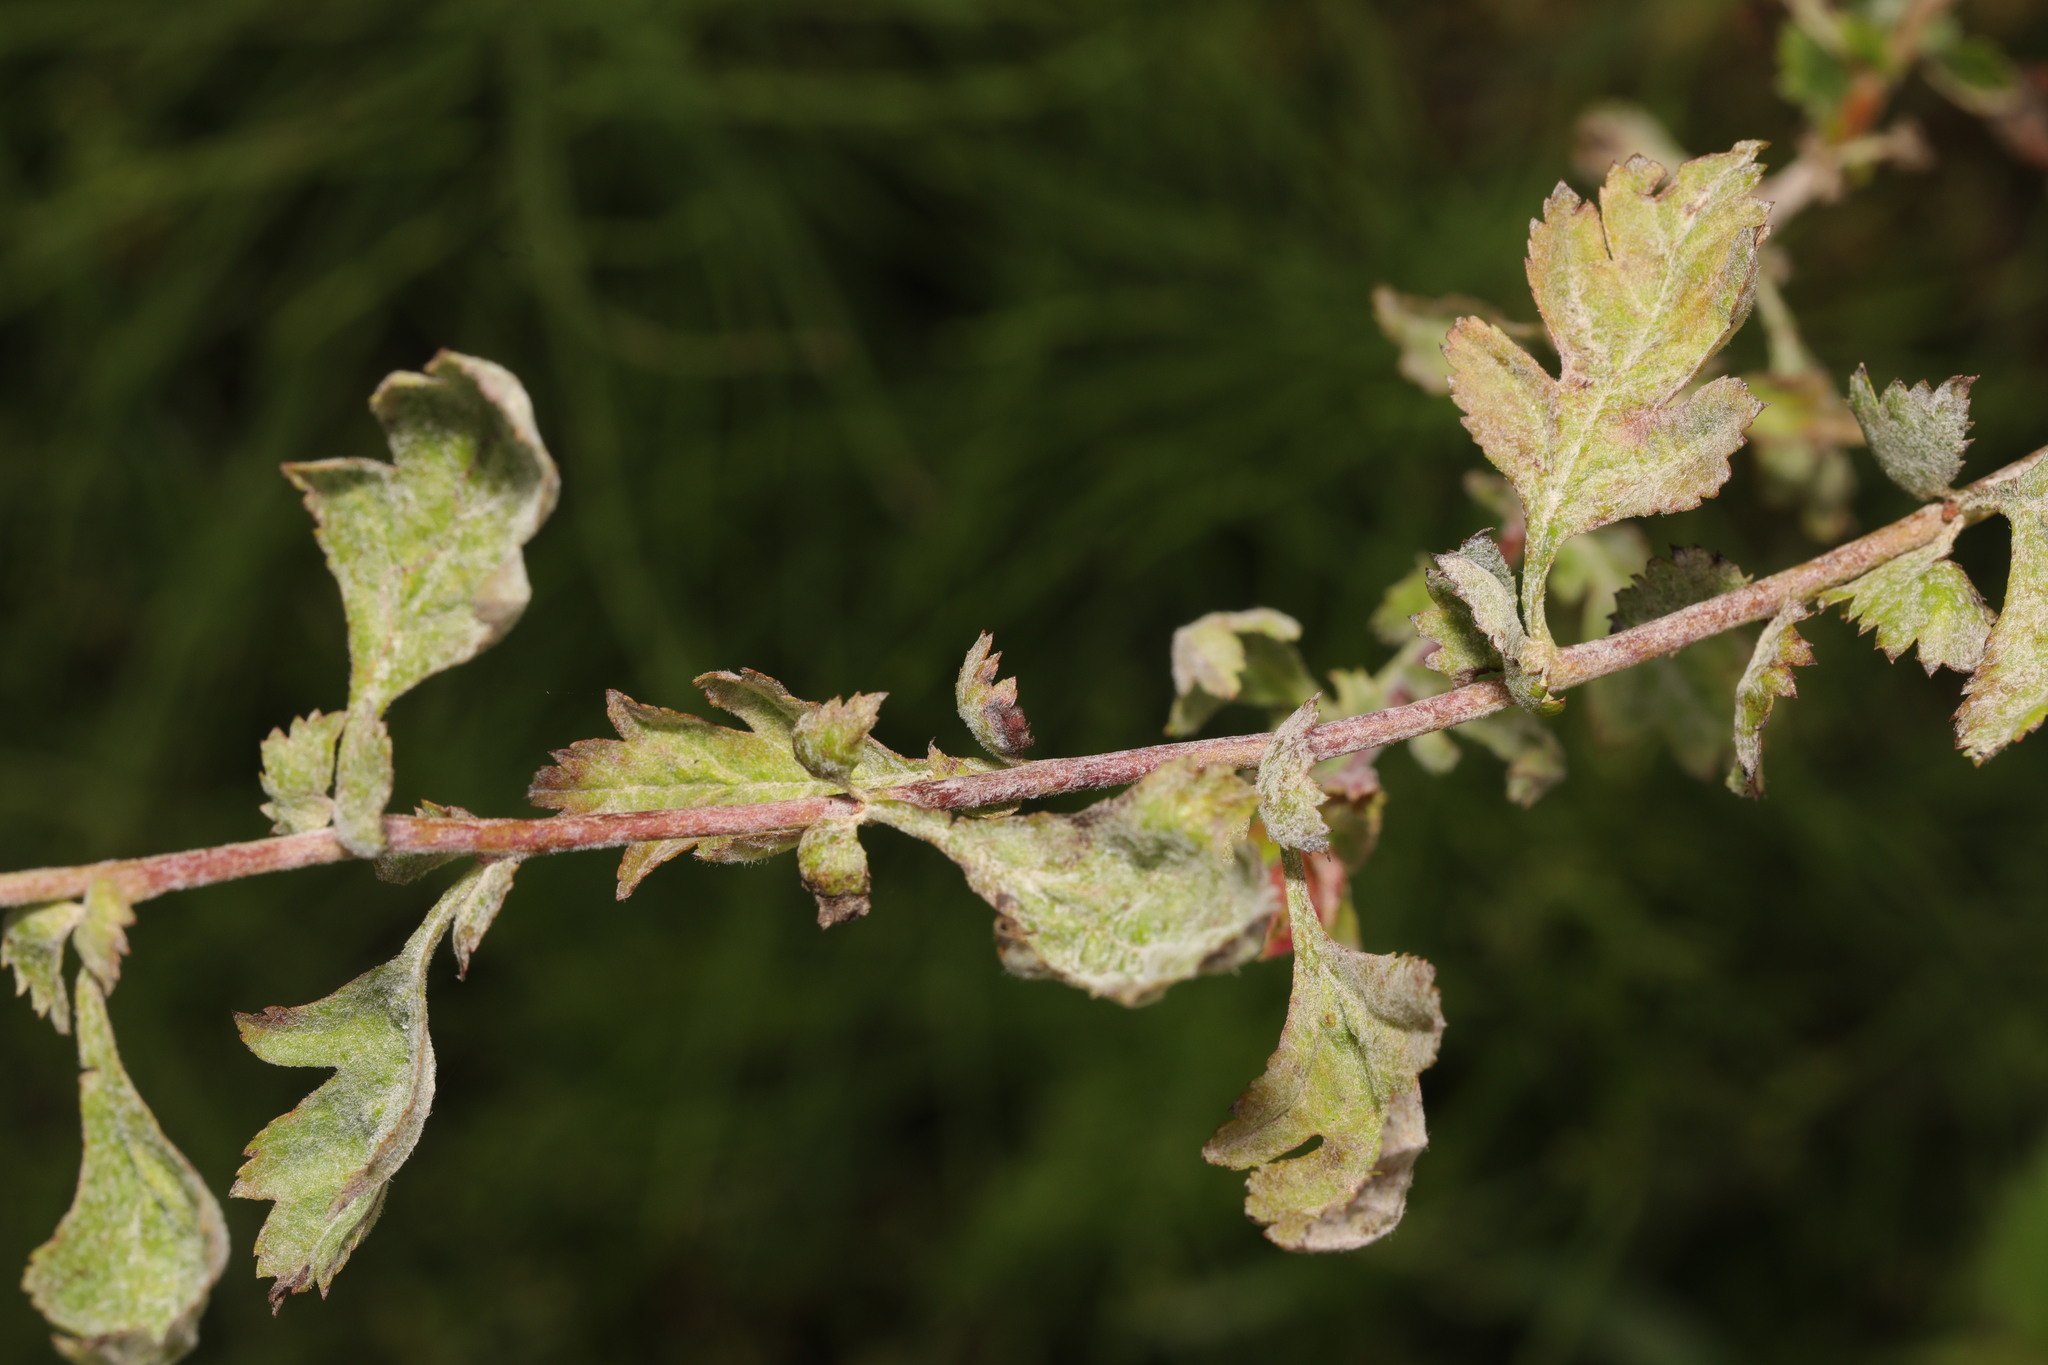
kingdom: Fungi
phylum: Ascomycota
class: Leotiomycetes
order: Helotiales
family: Erysiphaceae
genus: Podosphaera
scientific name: Podosphaera clandestina
